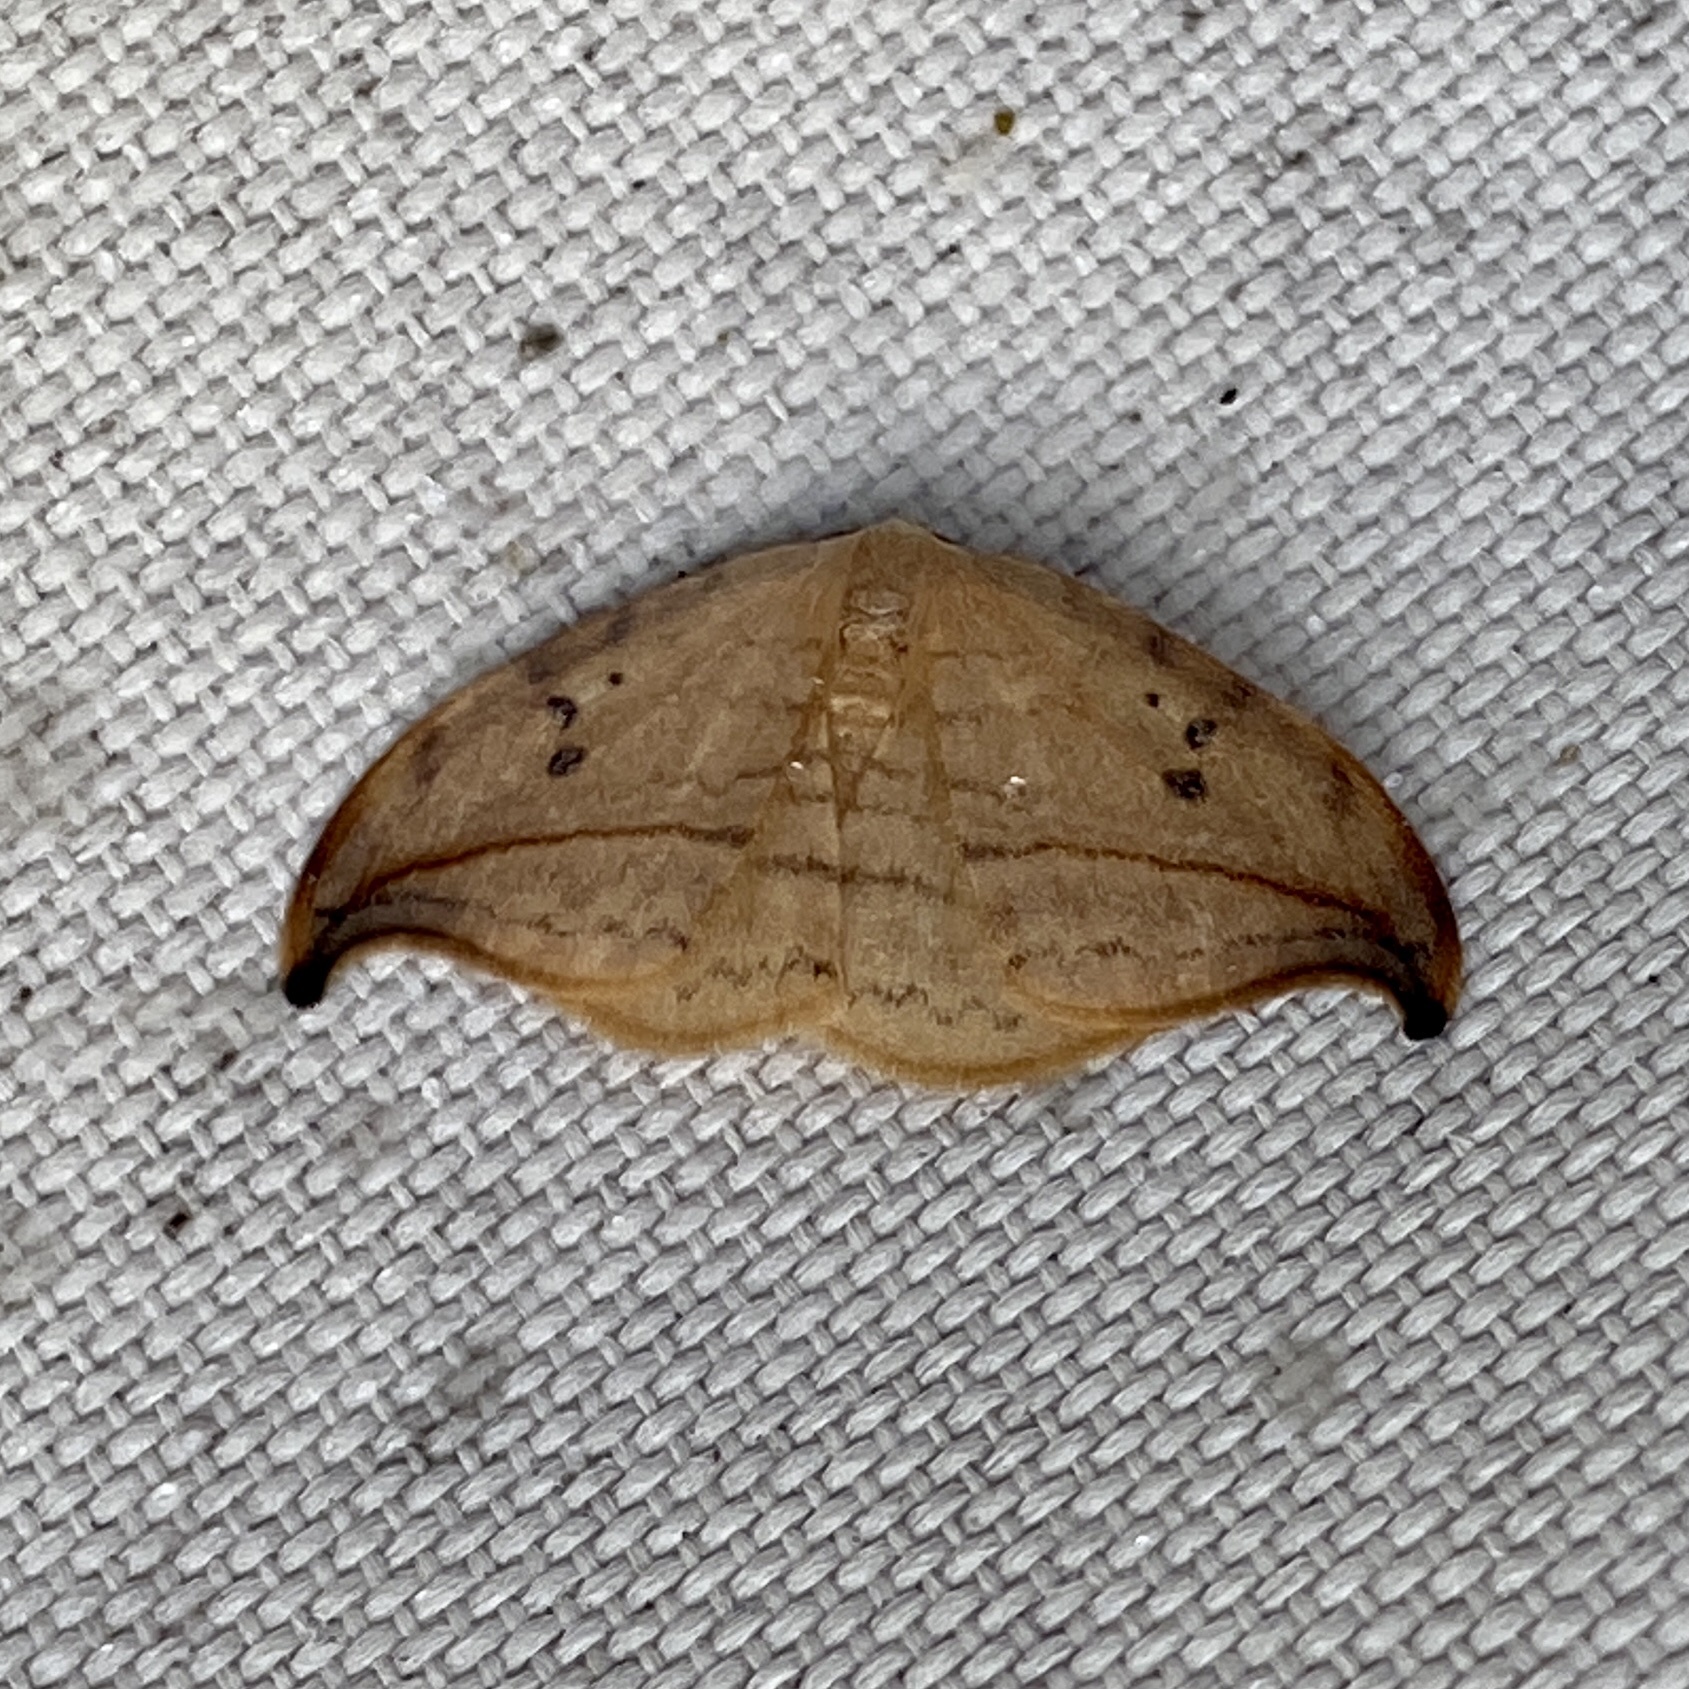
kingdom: Animalia
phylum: Arthropoda
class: Insecta
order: Lepidoptera
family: Drepanidae
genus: Drepana
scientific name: Drepana arcuata
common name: Arched hooktip moth
